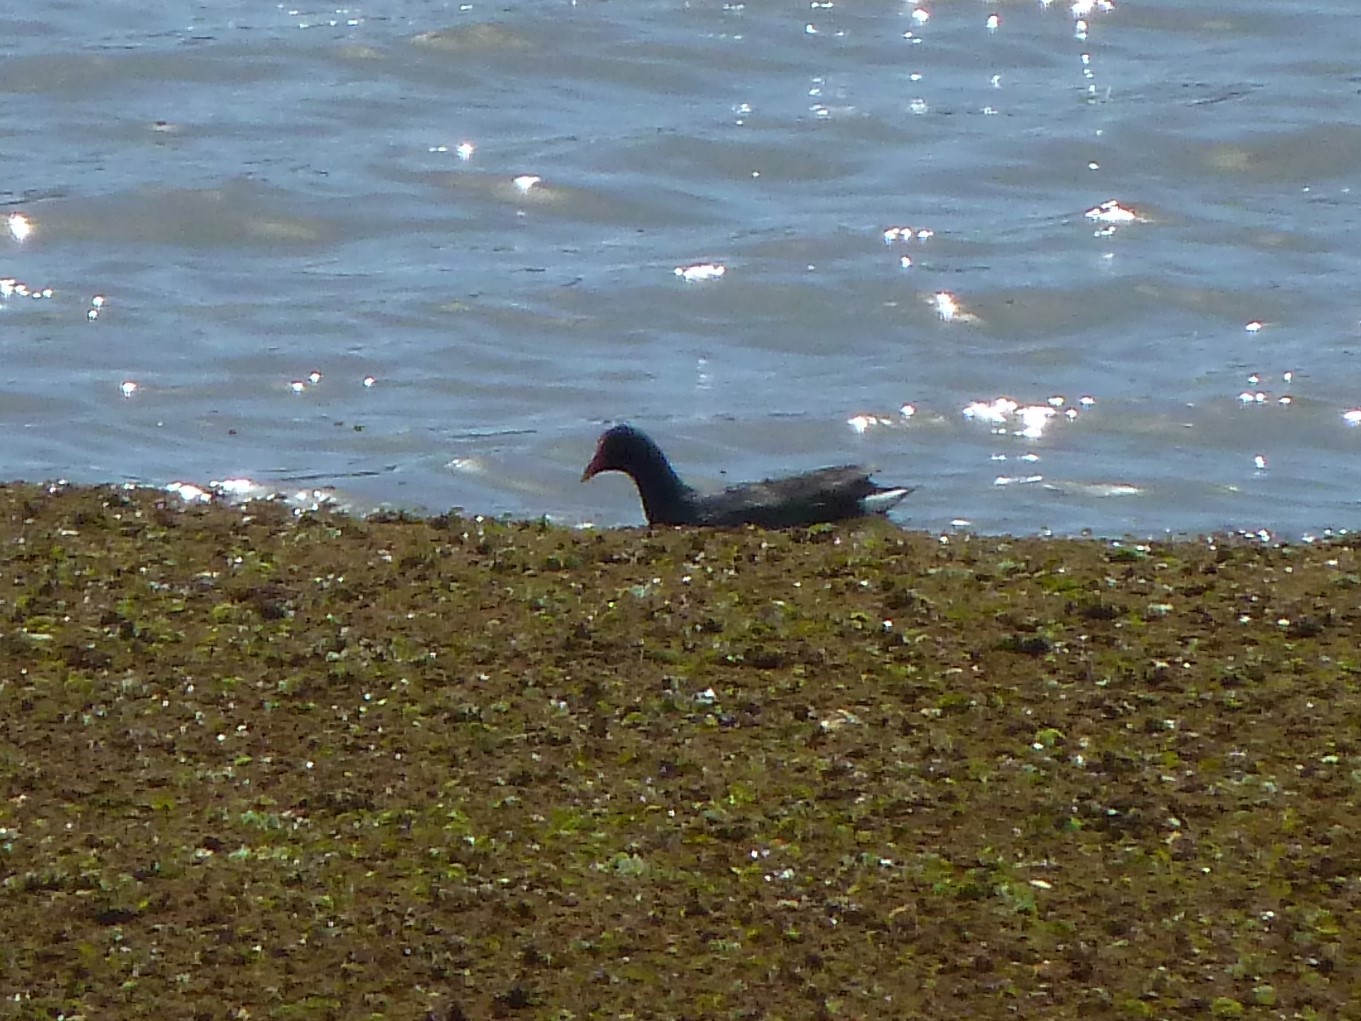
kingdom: Animalia
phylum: Chordata
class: Aves
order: Gruiformes
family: Rallidae
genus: Gallinula
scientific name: Gallinula chloropus
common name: Common moorhen
